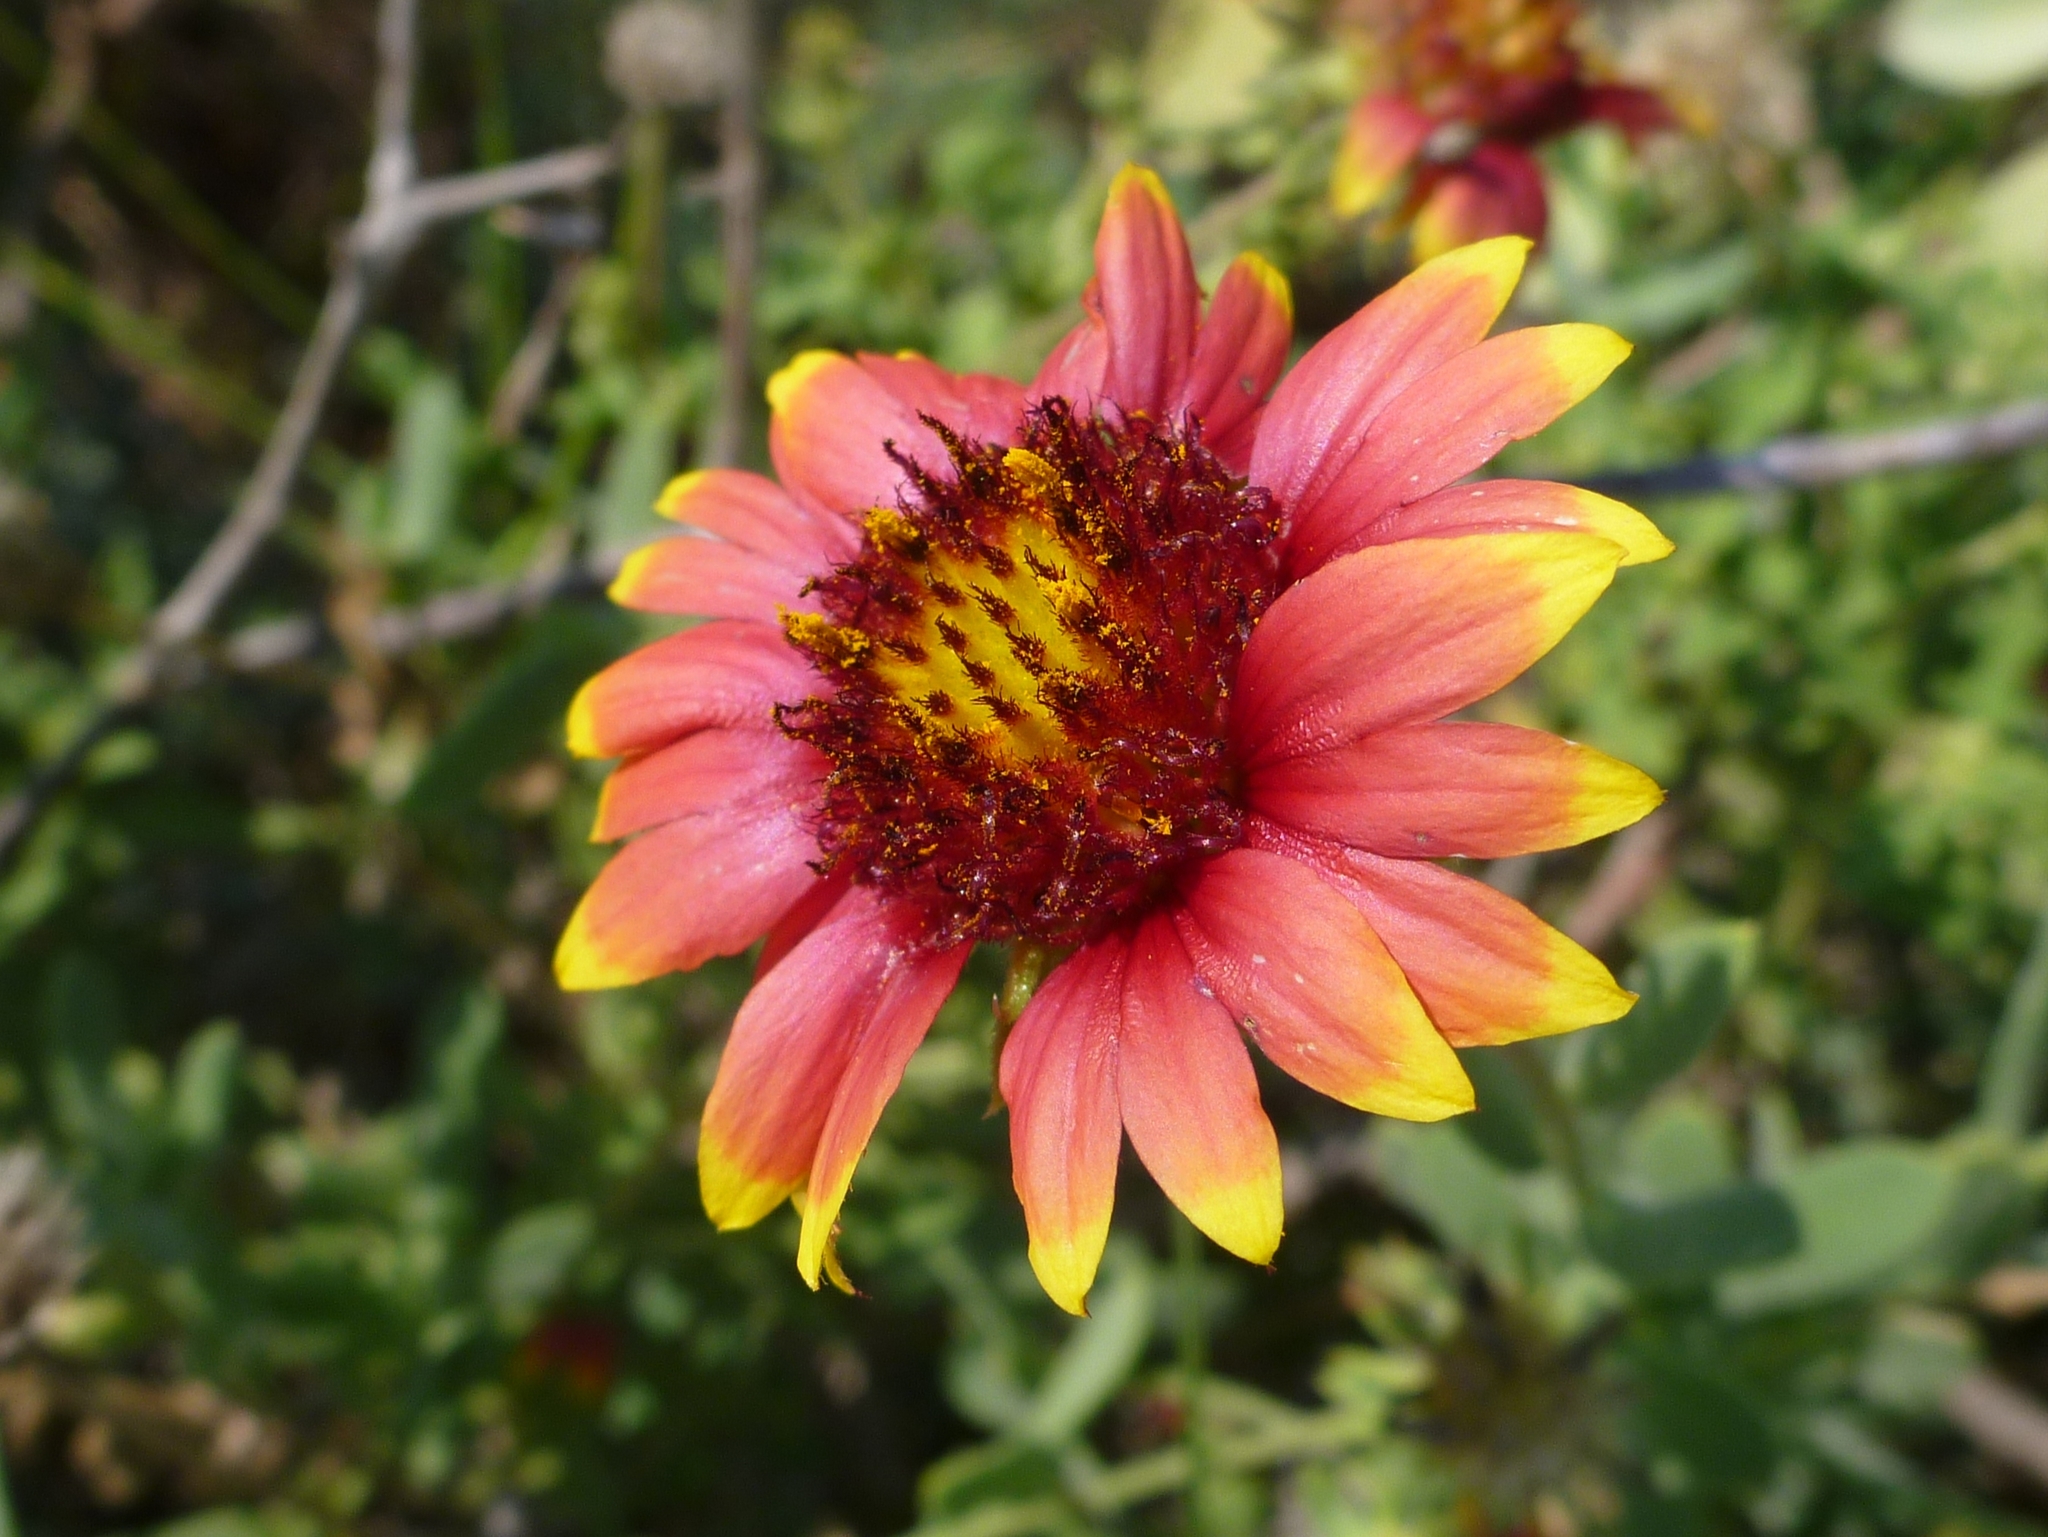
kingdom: Plantae
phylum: Tracheophyta
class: Magnoliopsida
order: Asterales
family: Asteraceae
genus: Gaillardia
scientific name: Gaillardia pulchella
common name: Firewheel
